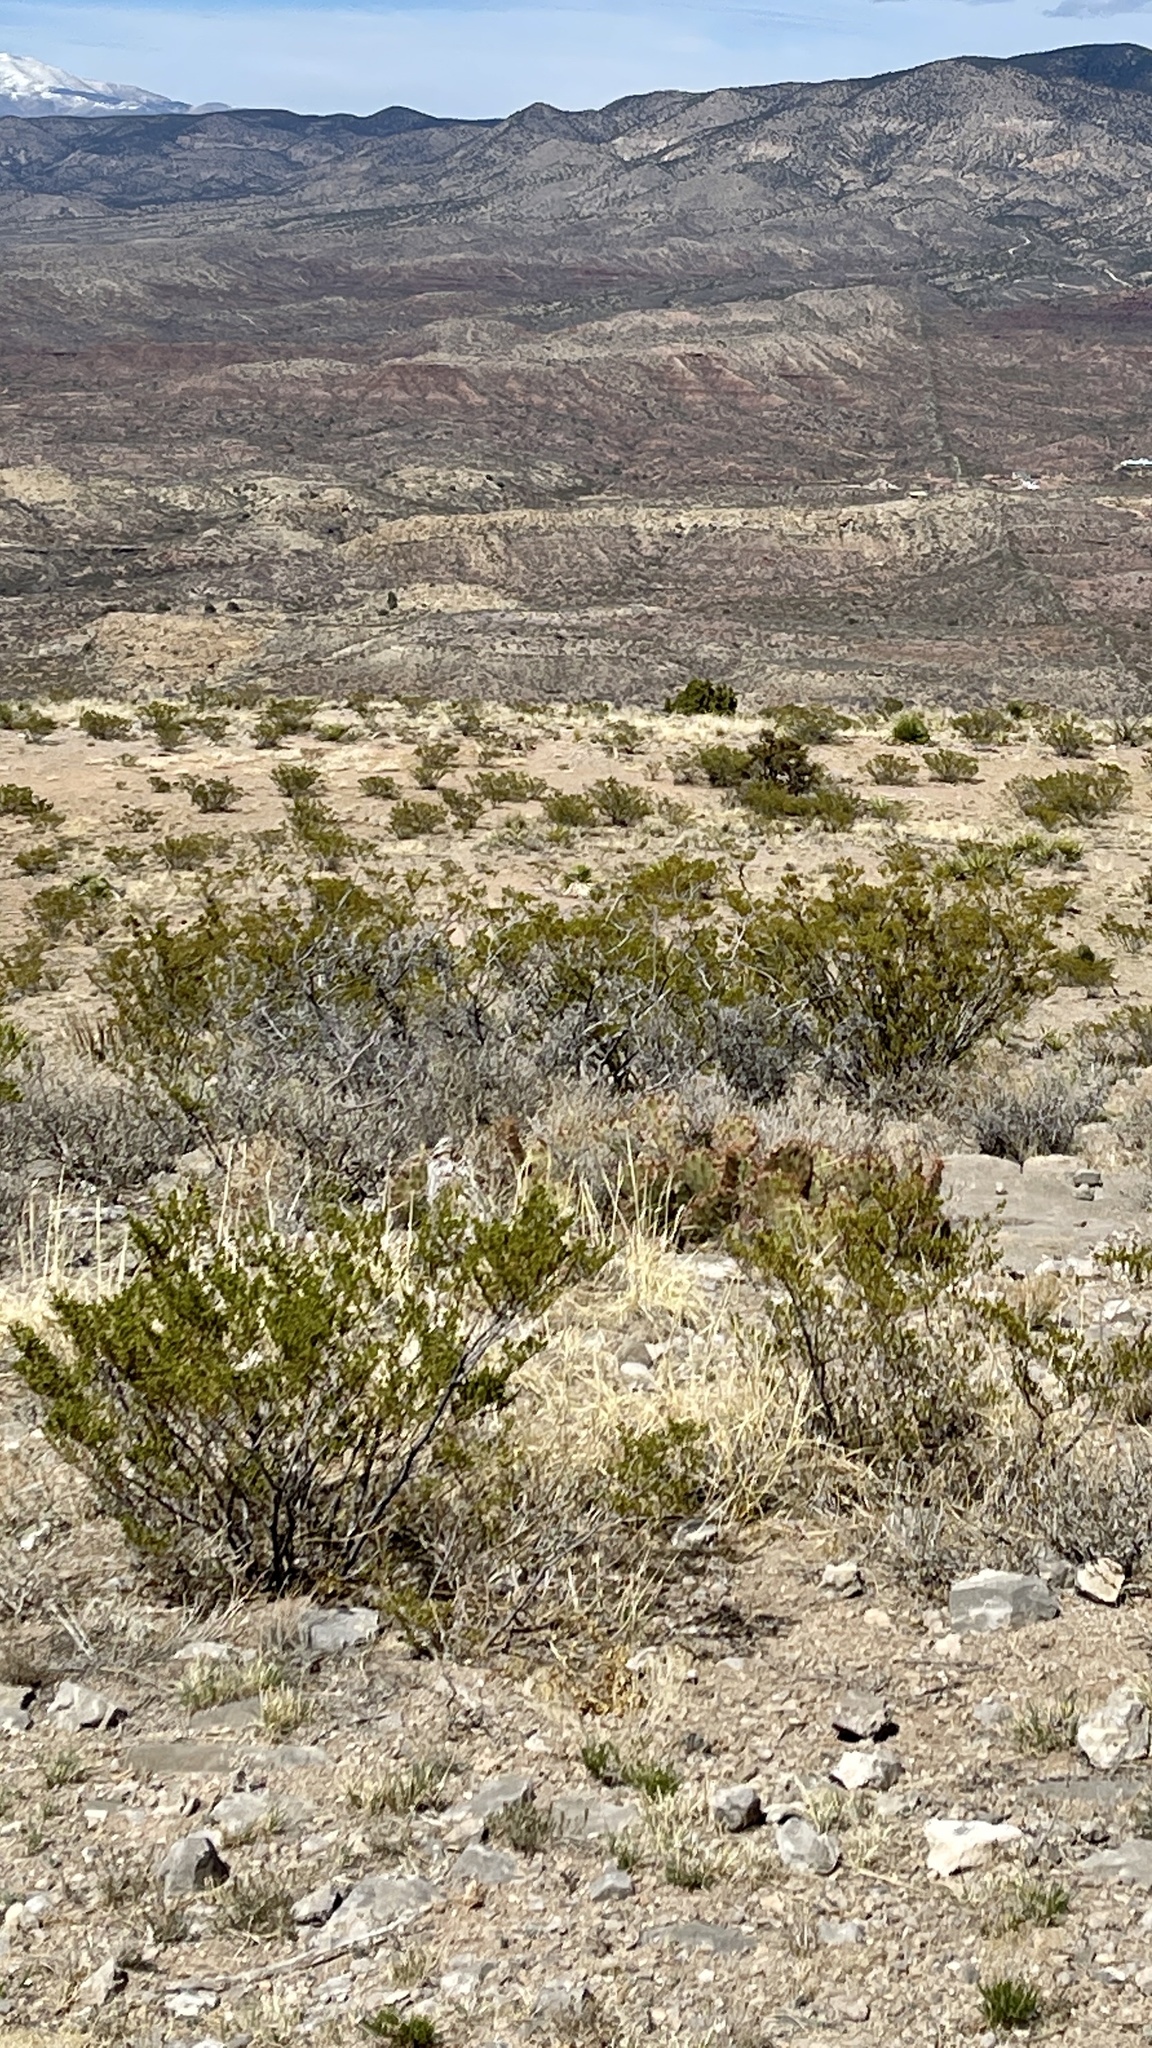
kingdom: Plantae
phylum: Tracheophyta
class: Magnoliopsida
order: Zygophyllales
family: Zygophyllaceae
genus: Larrea
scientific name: Larrea tridentata
